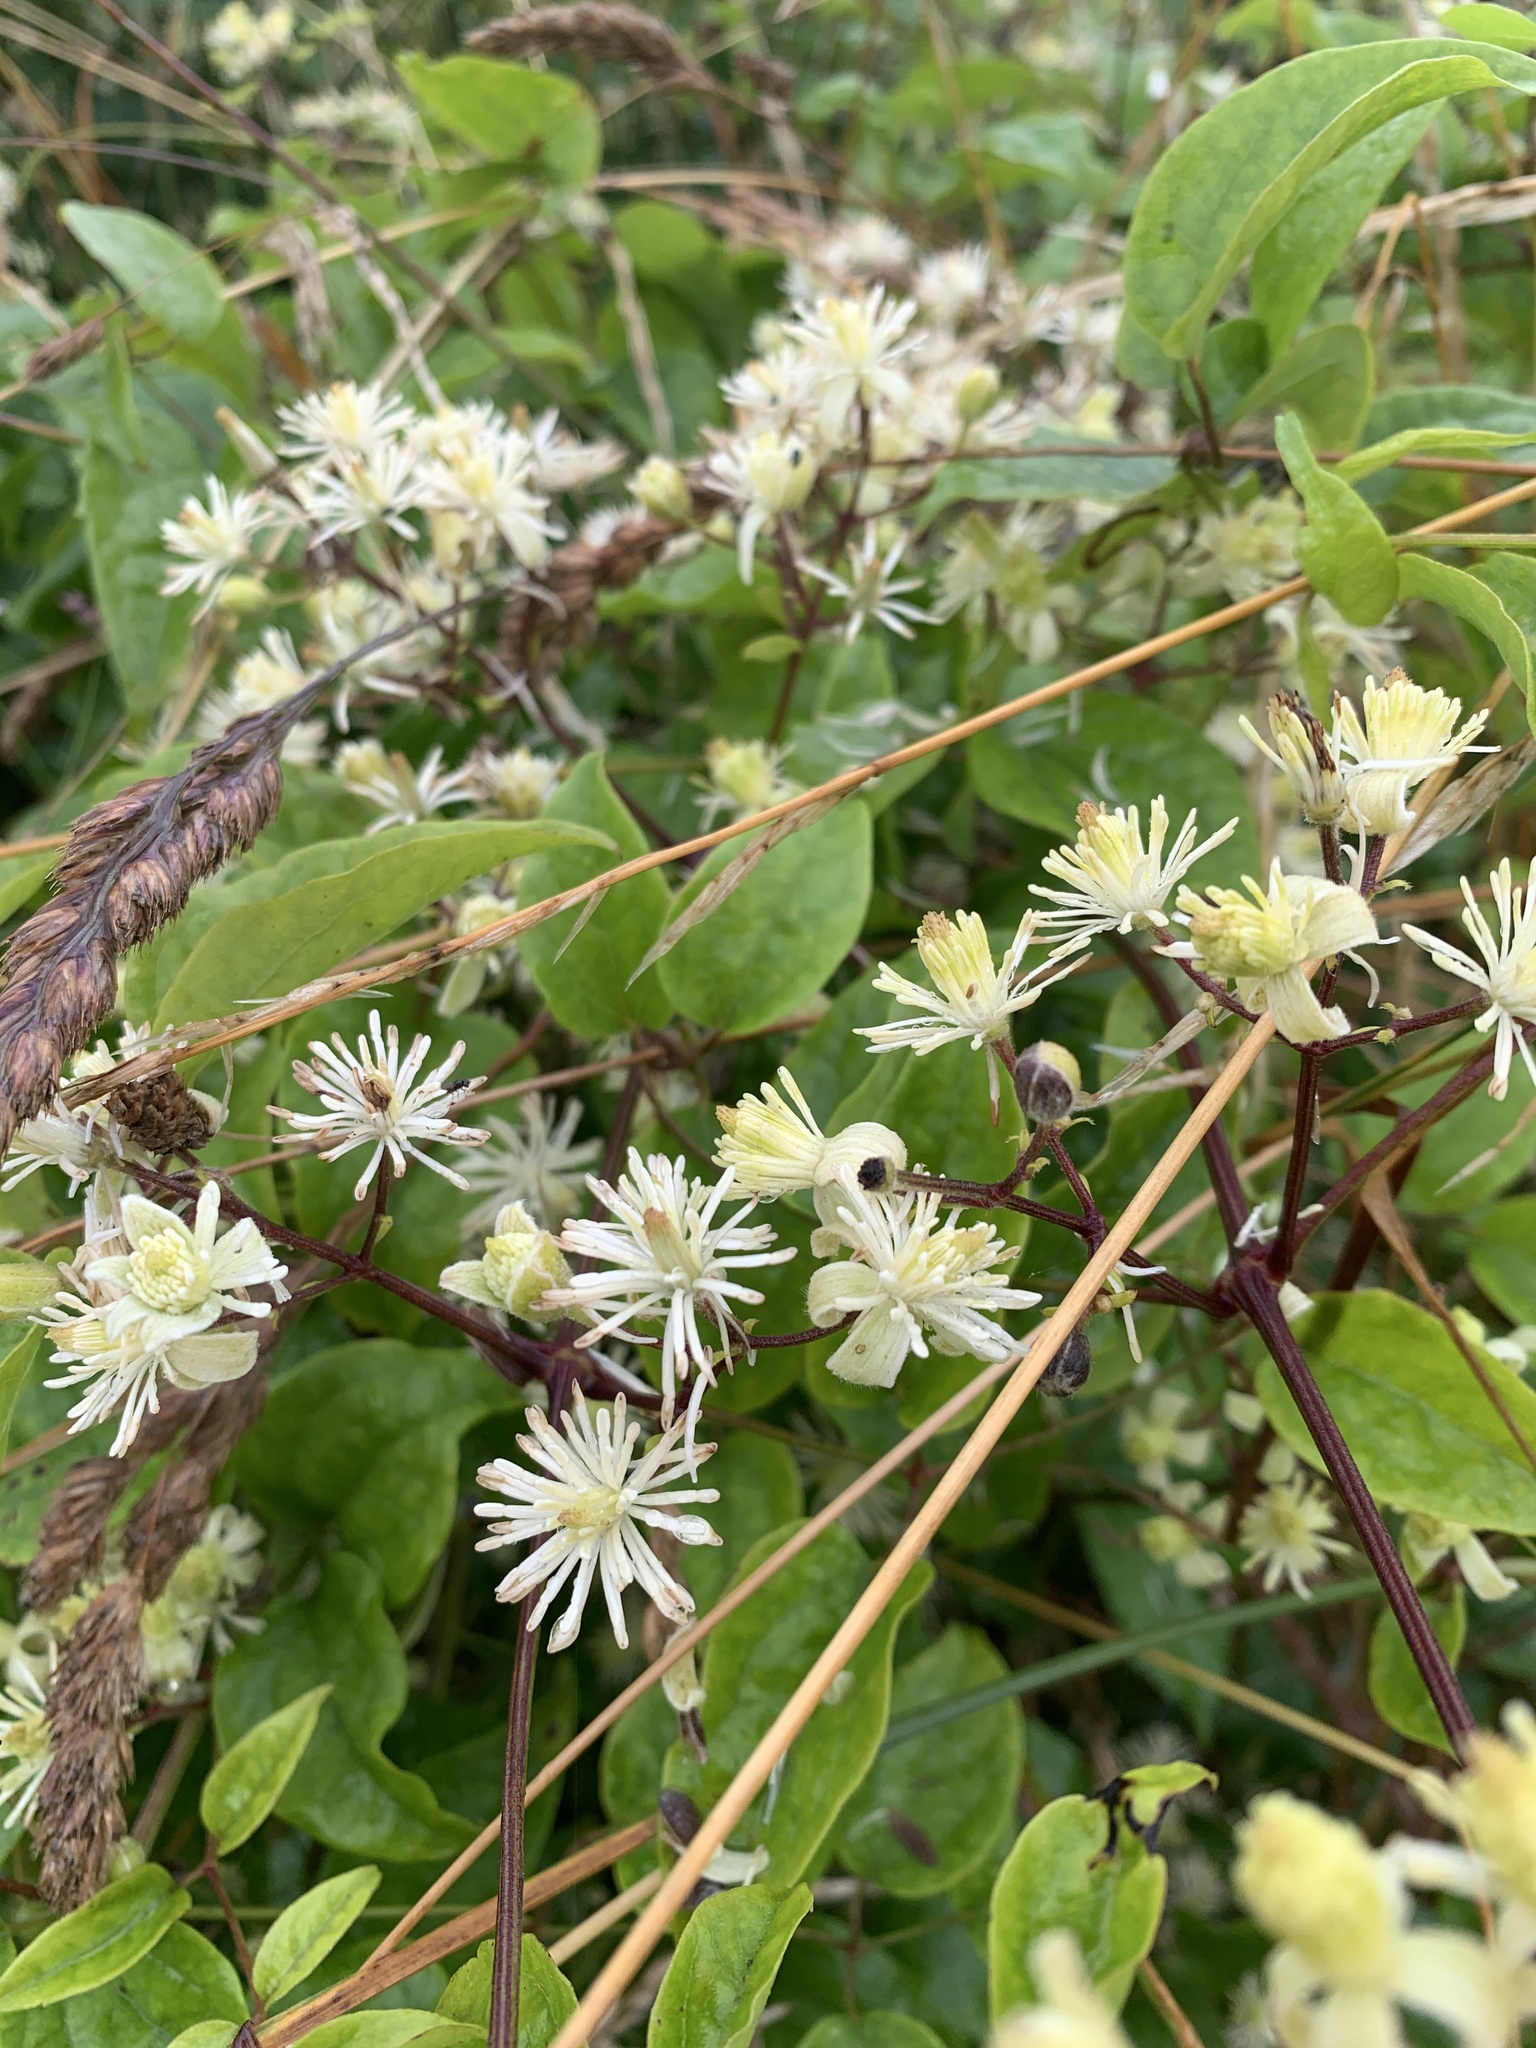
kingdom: Plantae
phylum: Tracheophyta
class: Magnoliopsida
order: Ranunculales
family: Ranunculaceae
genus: Clematis
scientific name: Clematis vitalba
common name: Evergreen clematis
